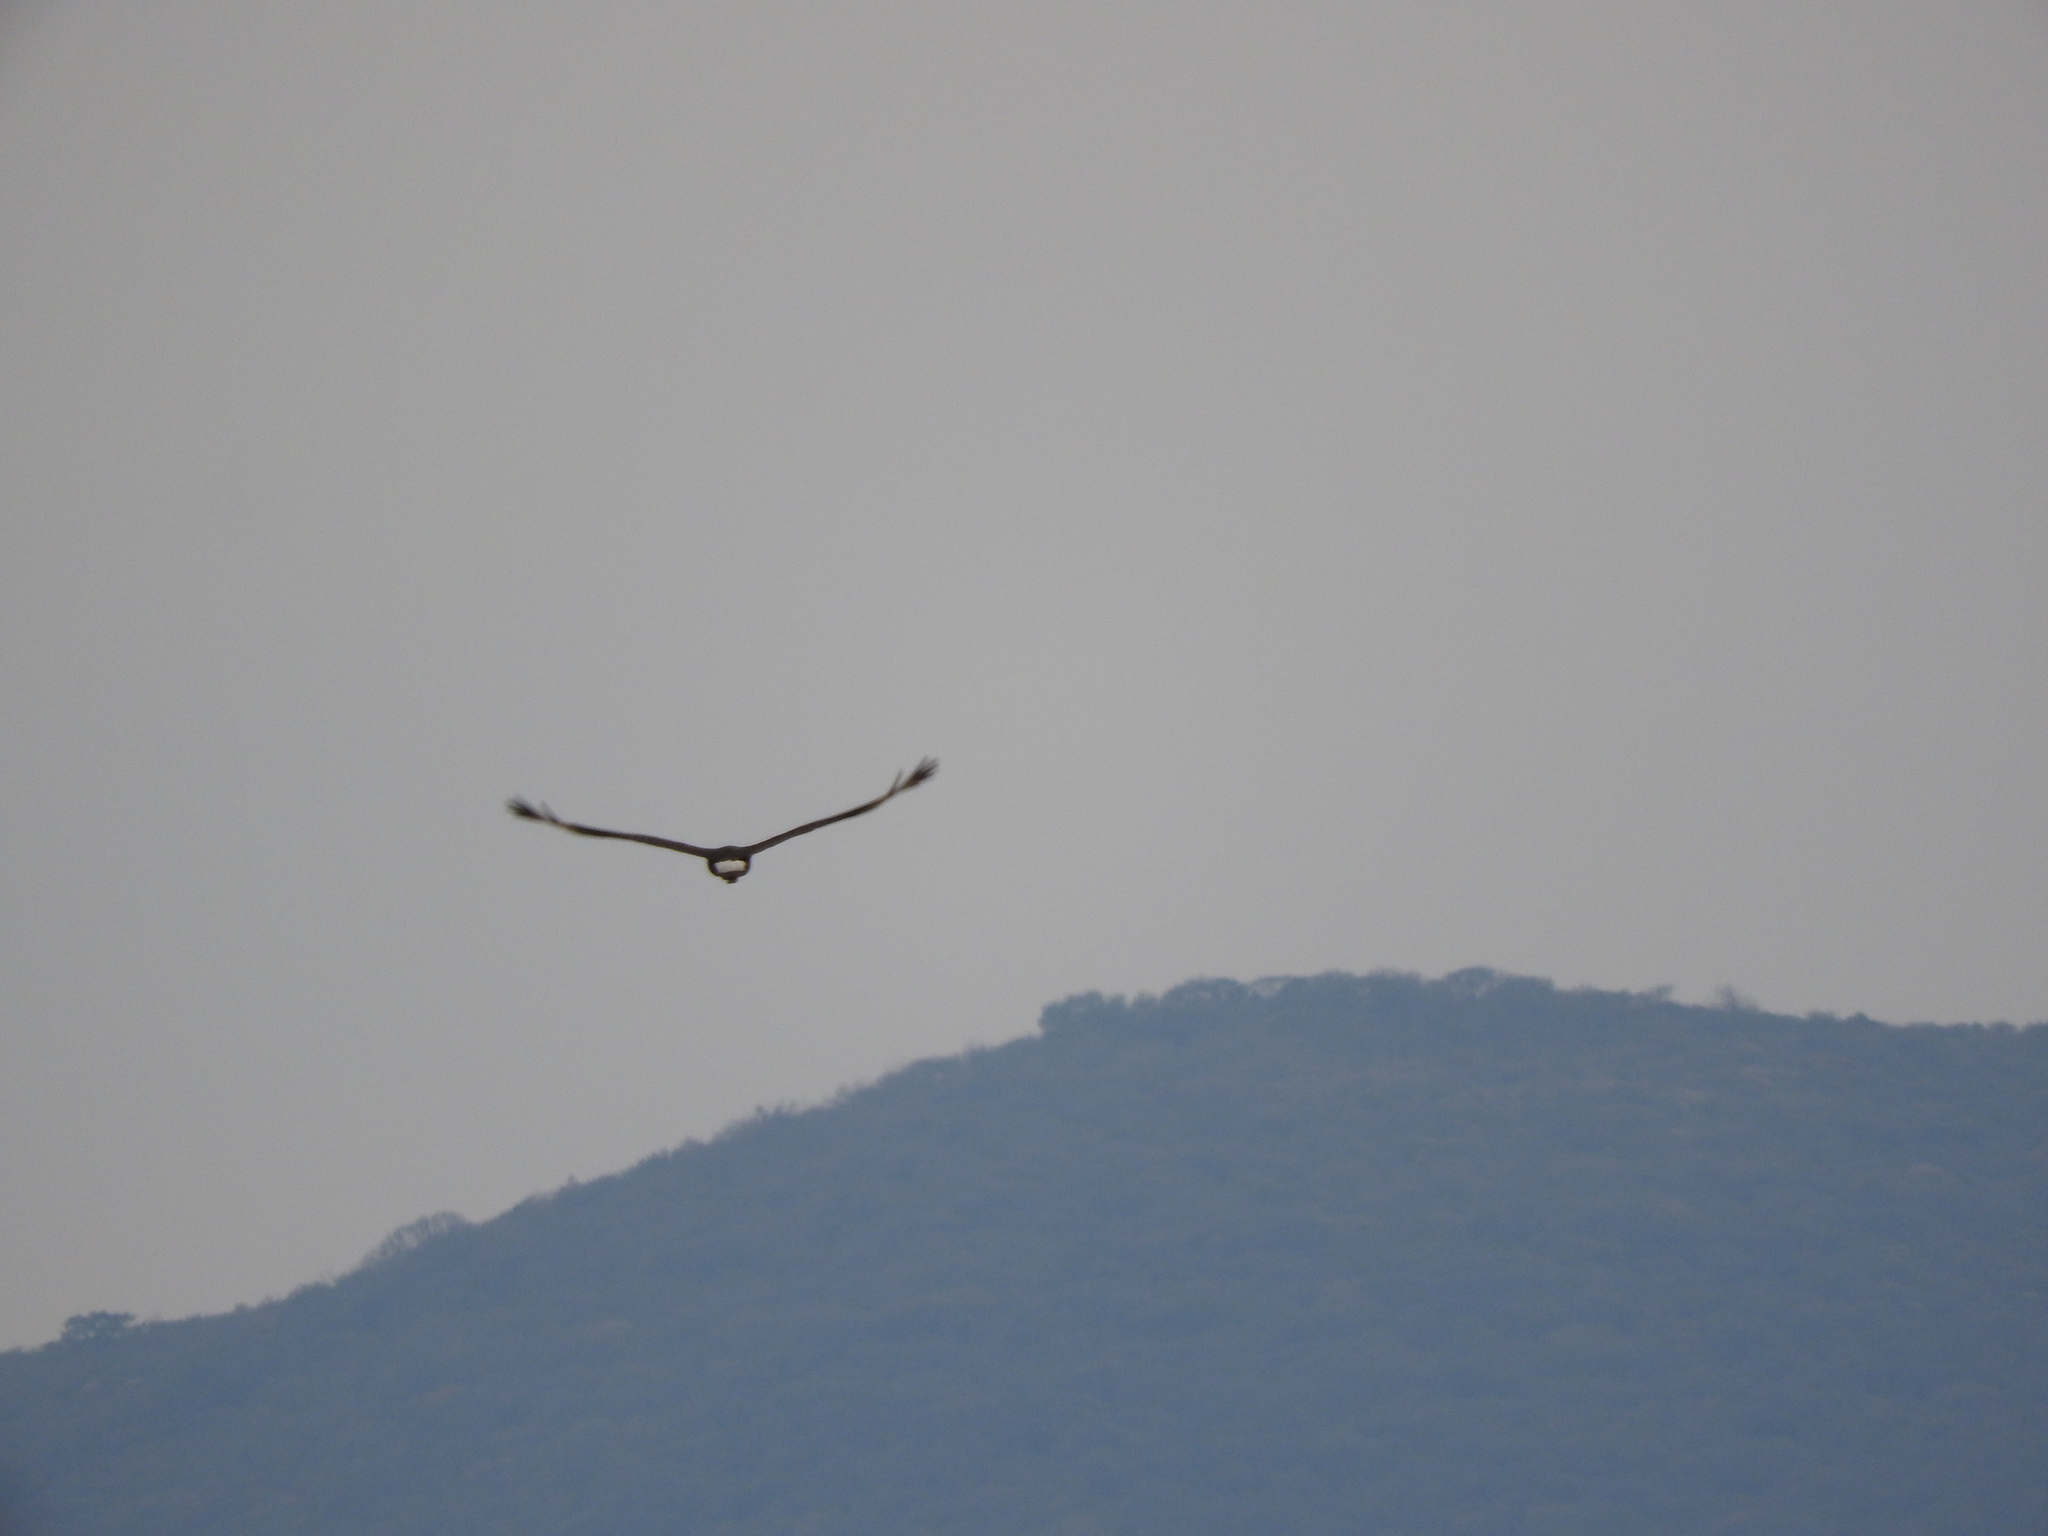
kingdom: Animalia
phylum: Chordata
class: Aves
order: Falconiformes
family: Falconidae
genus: Caracara
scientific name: Caracara plancus
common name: Southern caracara
